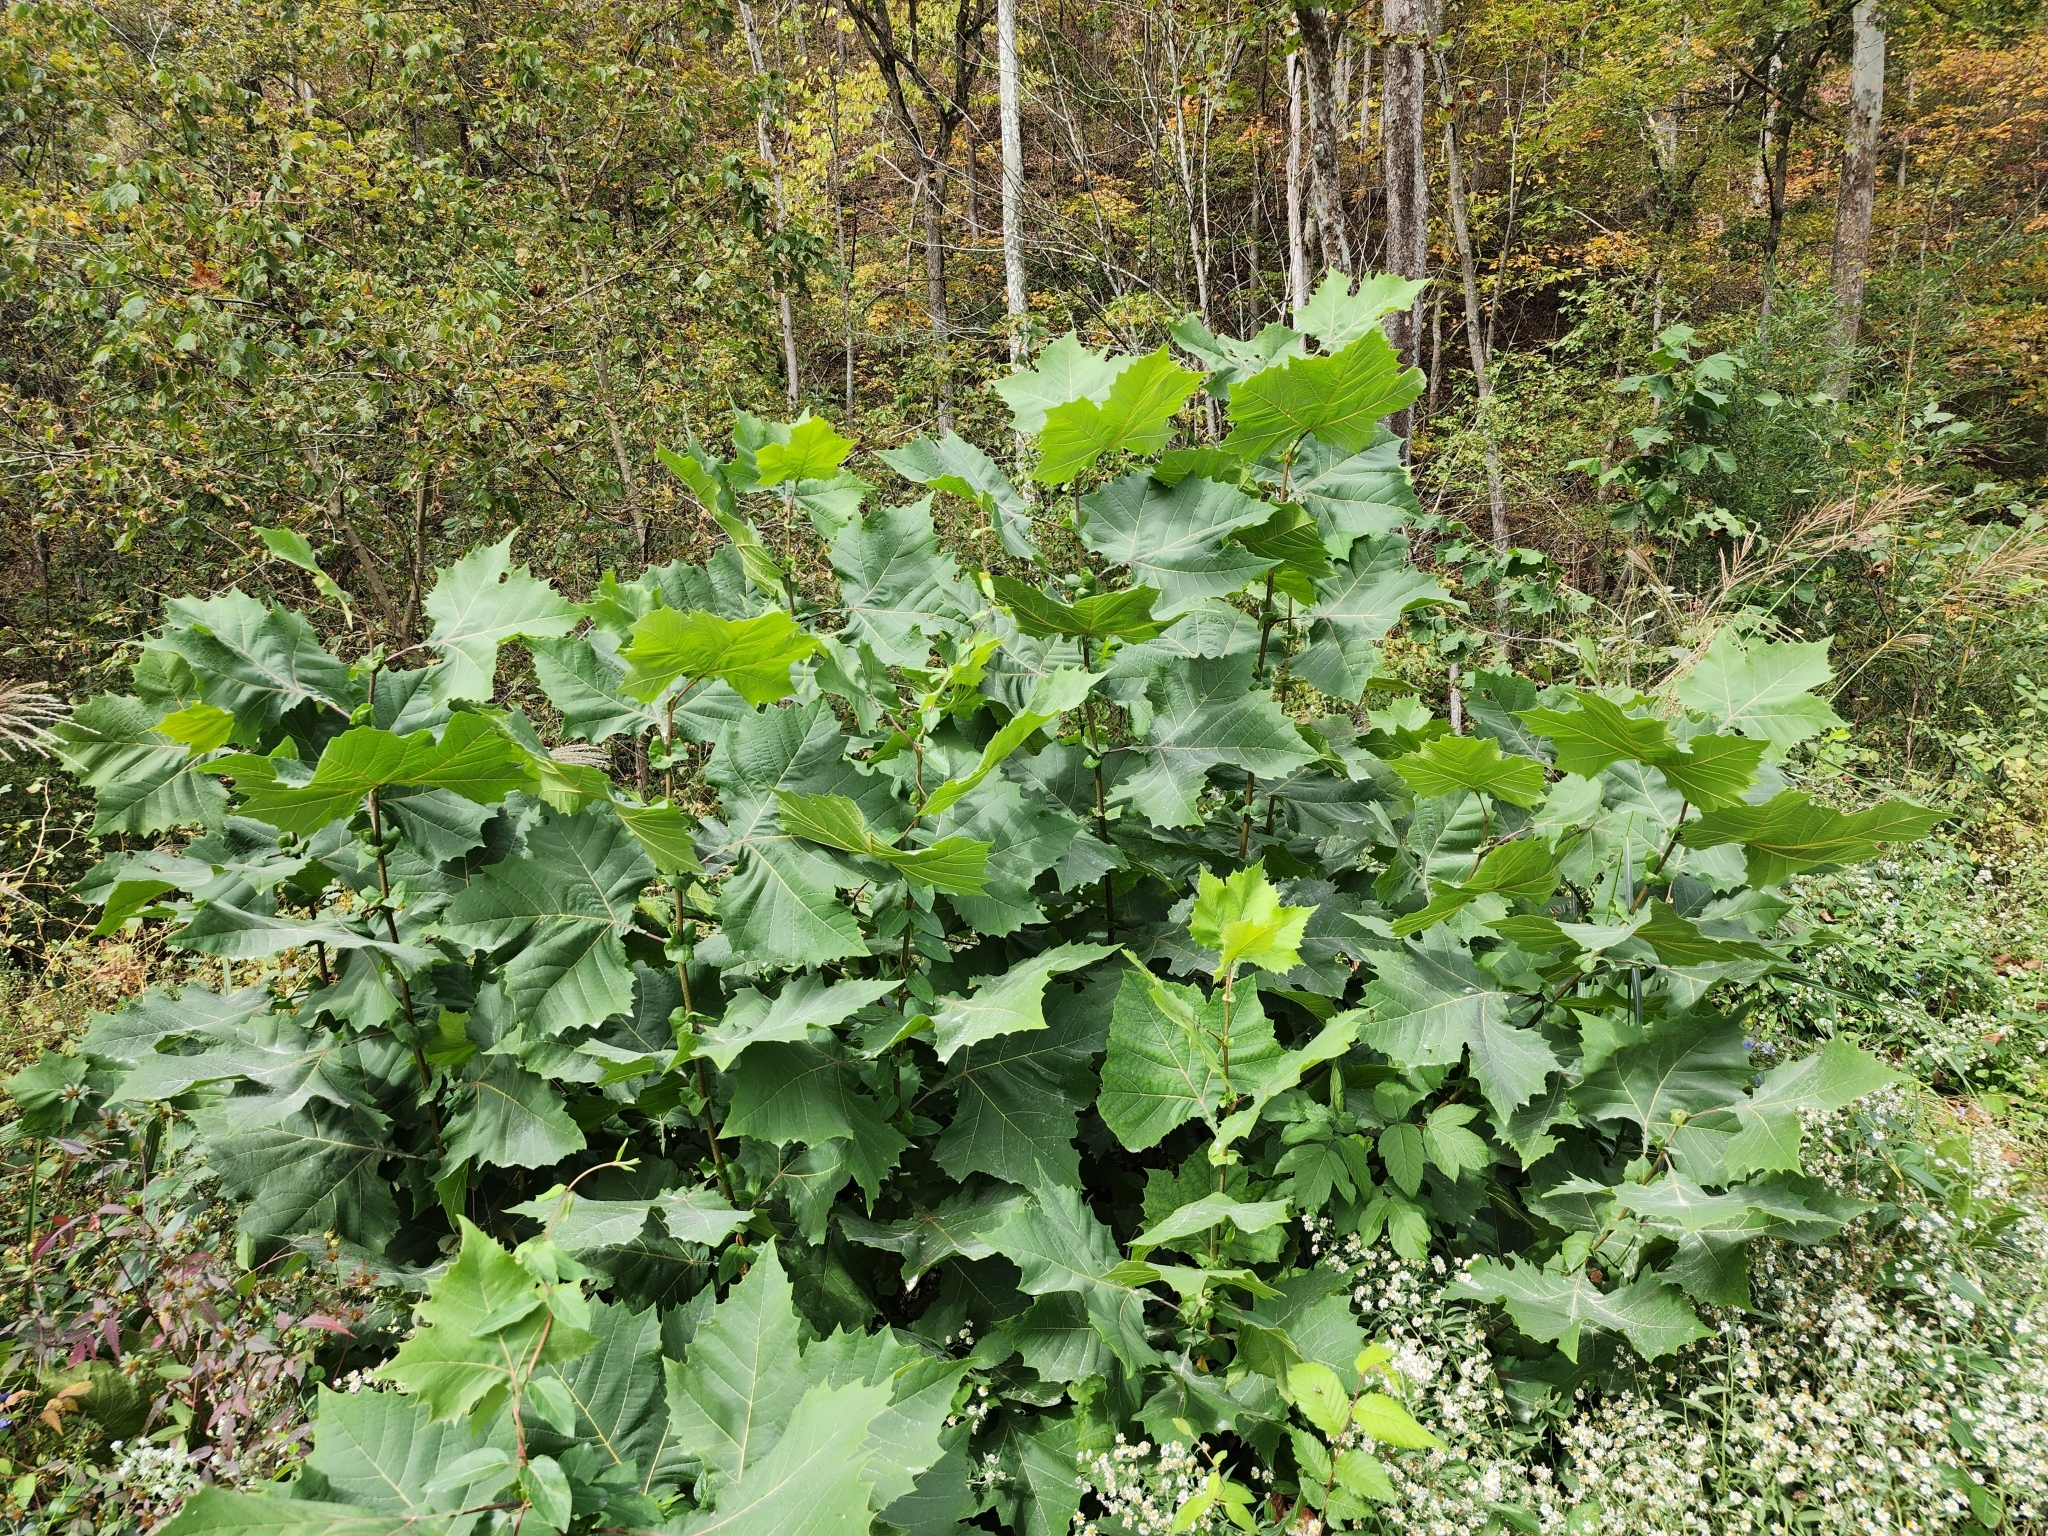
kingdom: Plantae
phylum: Tracheophyta
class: Magnoliopsida
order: Proteales
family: Platanaceae
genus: Platanus
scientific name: Platanus occidentalis
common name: American sycamore
